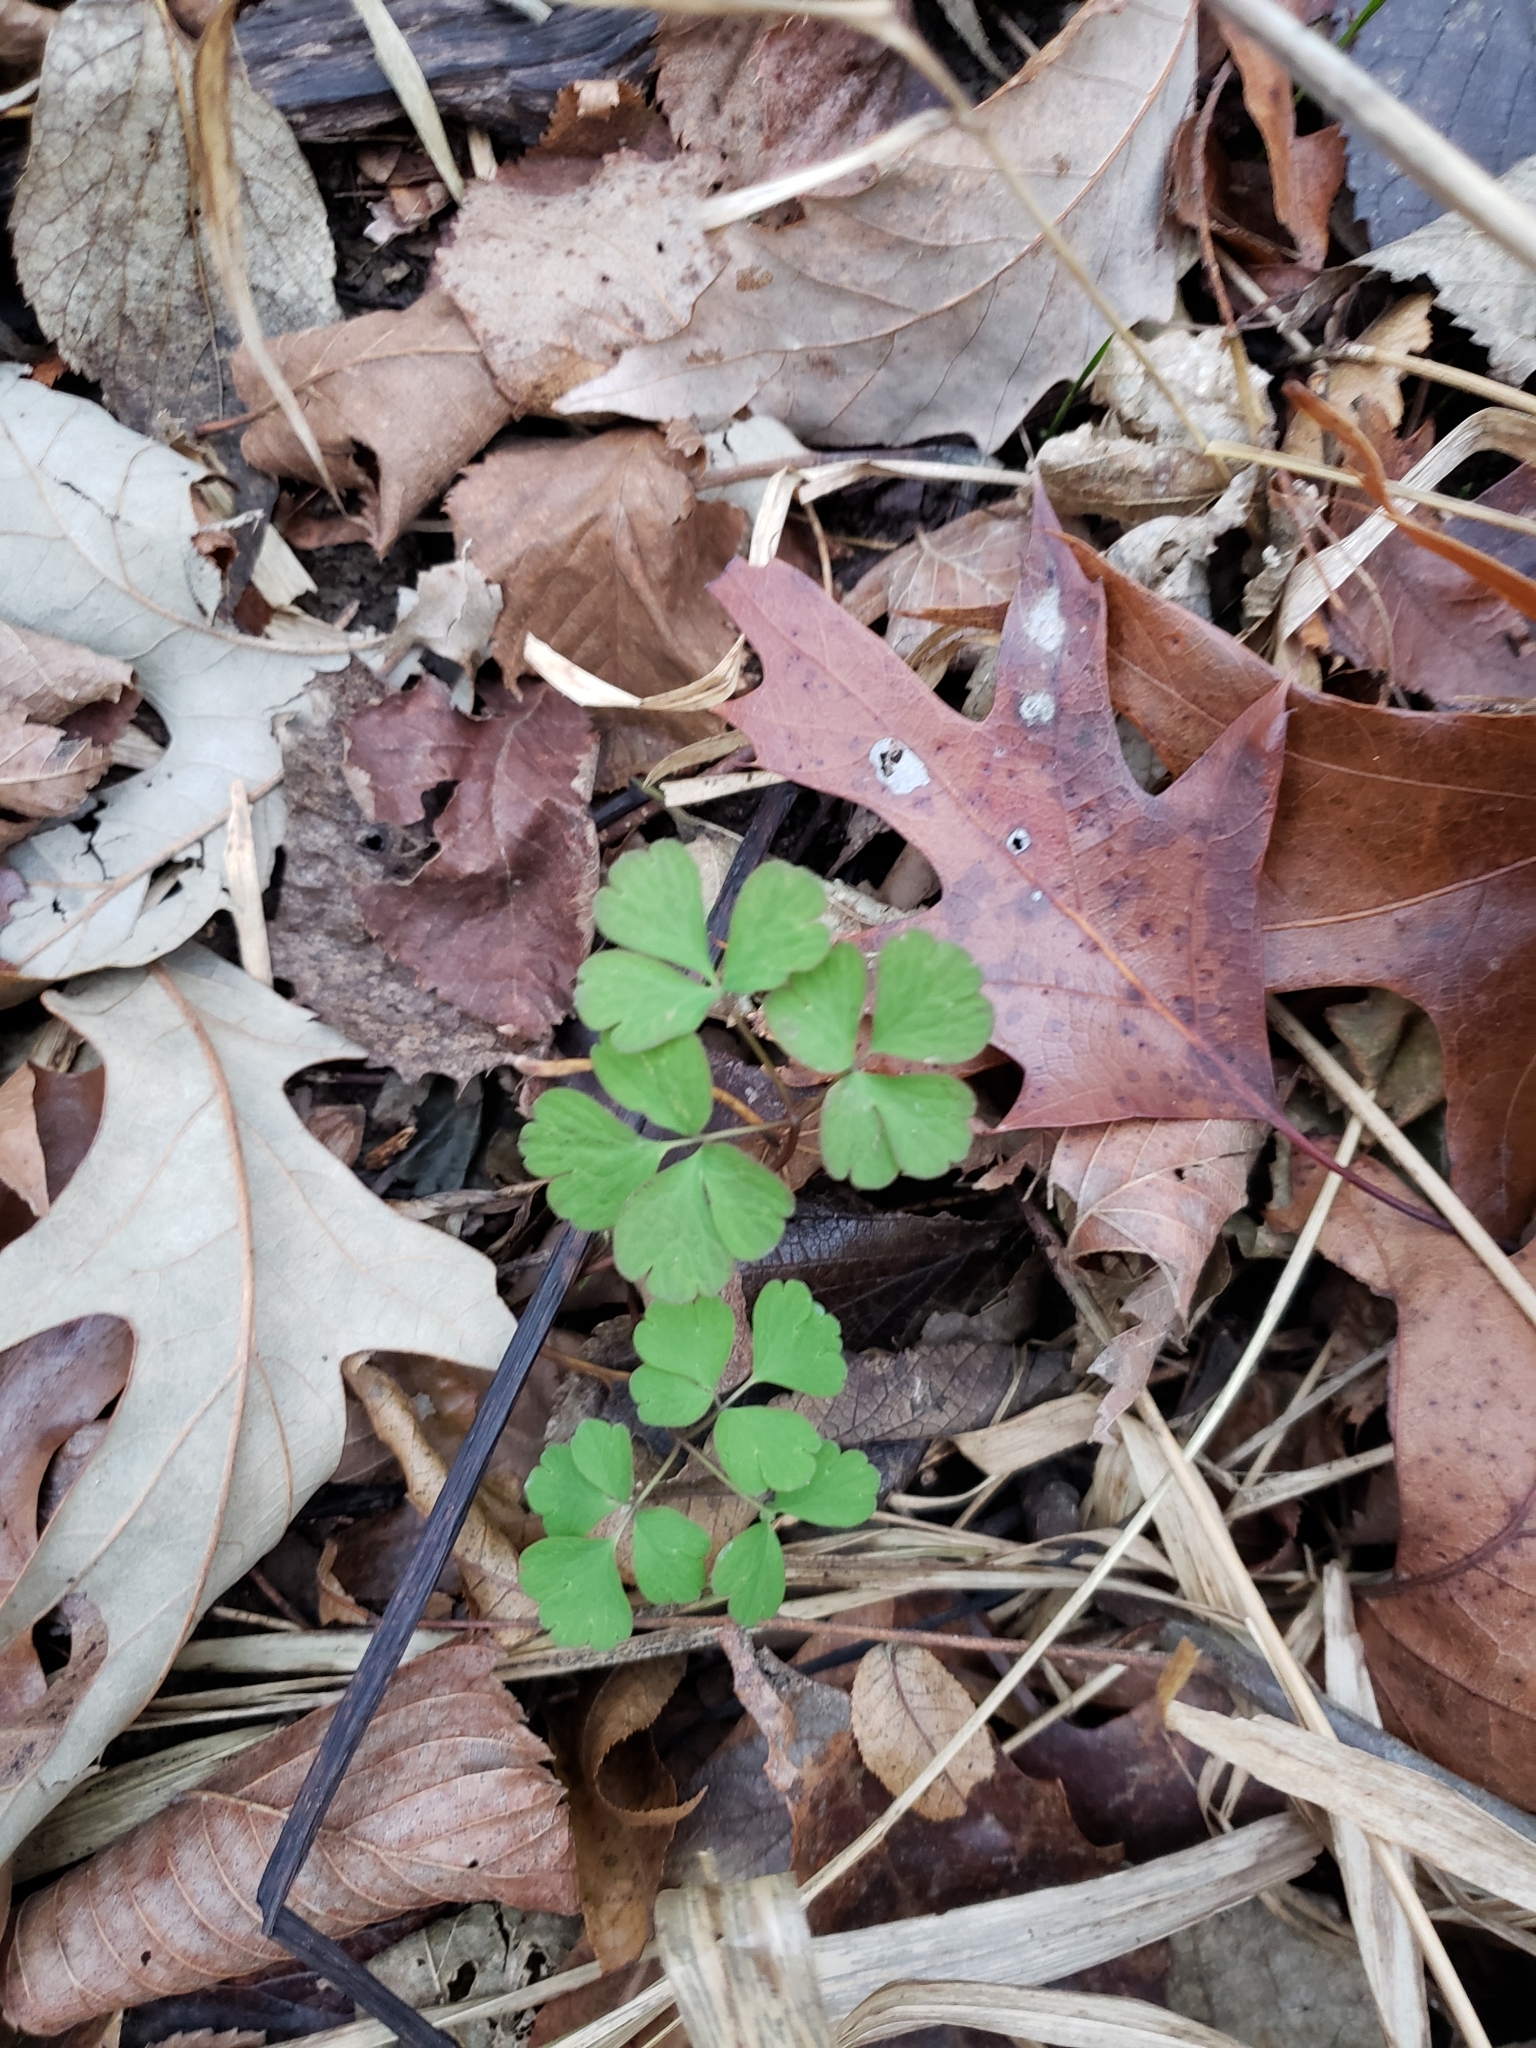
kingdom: Plantae
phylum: Tracheophyta
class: Magnoliopsida
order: Ranunculales
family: Ranunculaceae
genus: Enemion
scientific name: Enemion biternatum
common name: Eastern false rue-anemone
